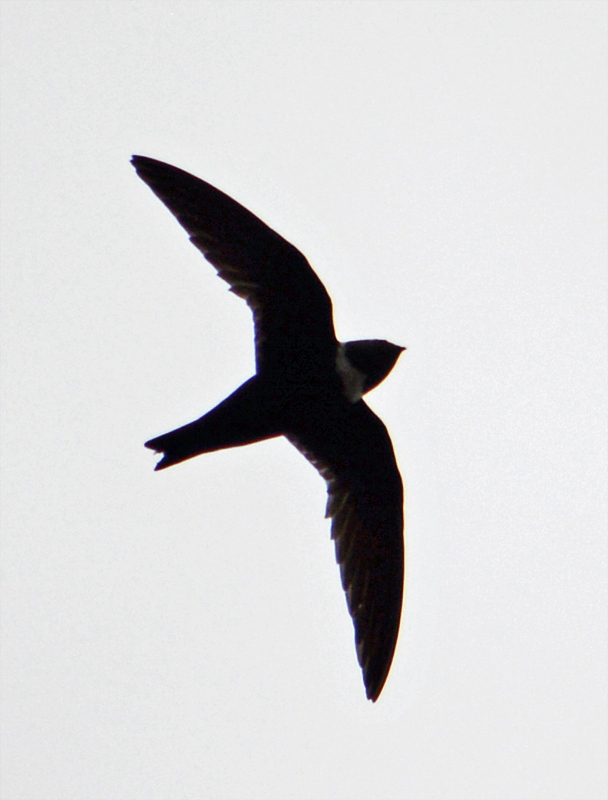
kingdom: Animalia
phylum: Chordata
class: Aves
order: Apodiformes
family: Apodidae
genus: Streptoprocne
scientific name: Streptoprocne zonaris
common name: White-collared swift
